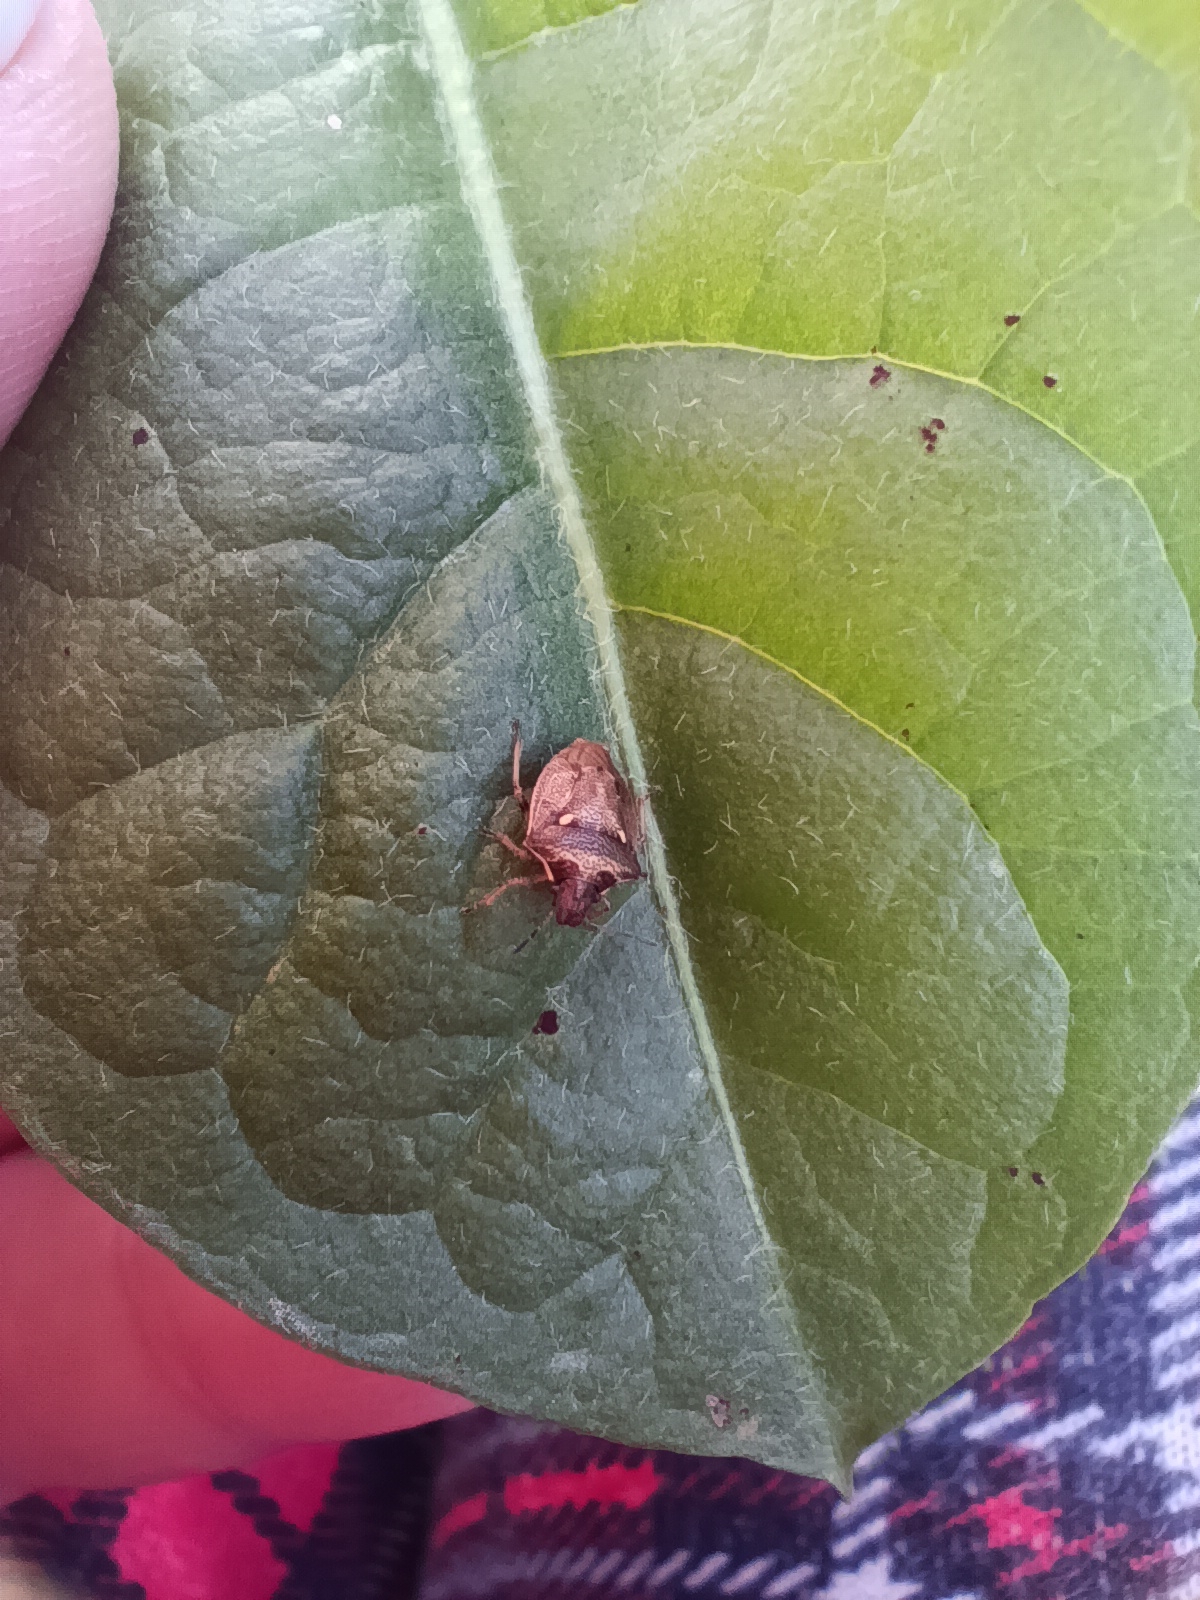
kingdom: Animalia
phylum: Arthropoda
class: Insecta
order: Hemiptera
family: Pentatomidae
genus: Eysarcoris
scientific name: Eysarcoris aeneus
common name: New forest shieldbug
